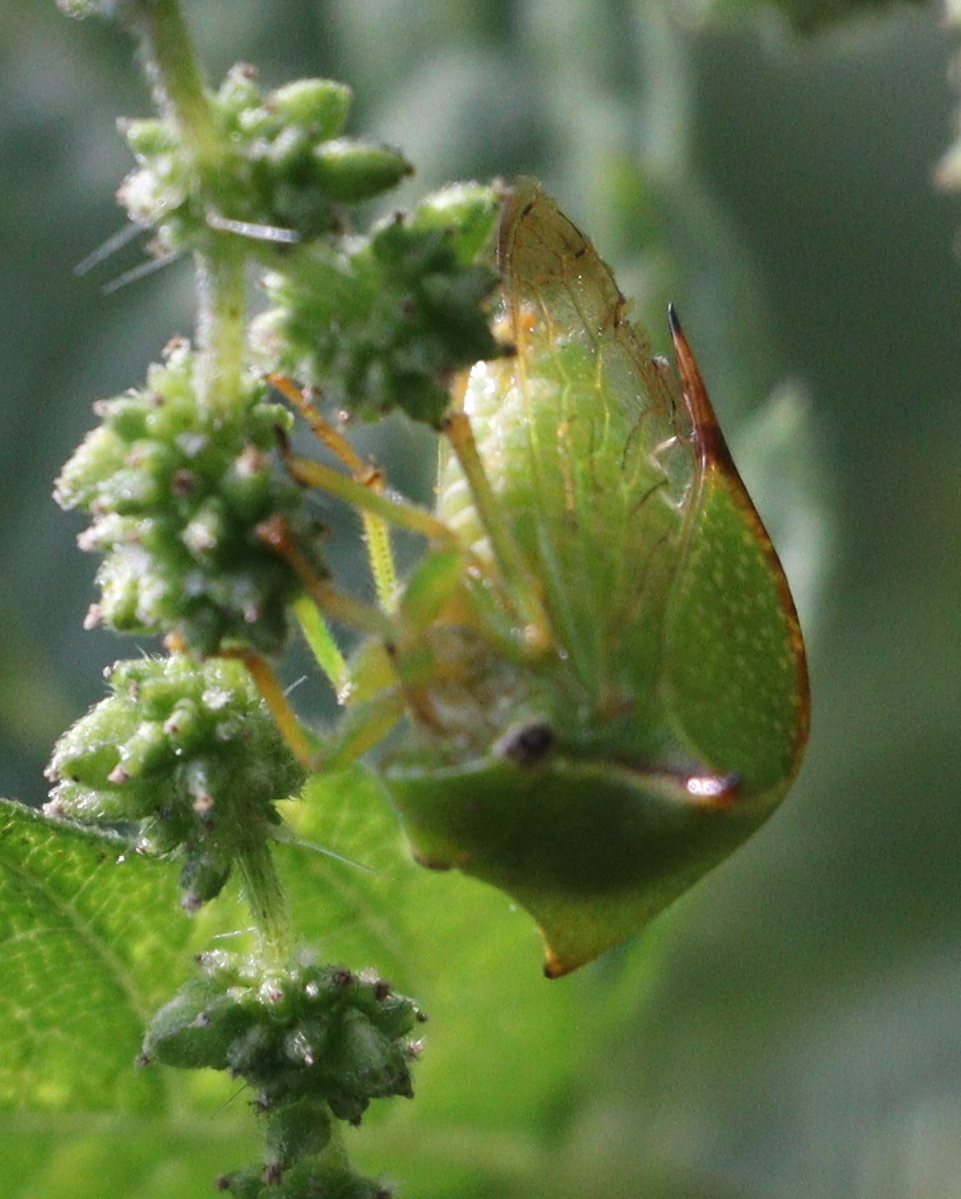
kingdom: Animalia
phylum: Arthropoda
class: Insecta
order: Hemiptera
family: Membracidae
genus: Stictocephala
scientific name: Stictocephala bisonia
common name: American buffalo treehopper
